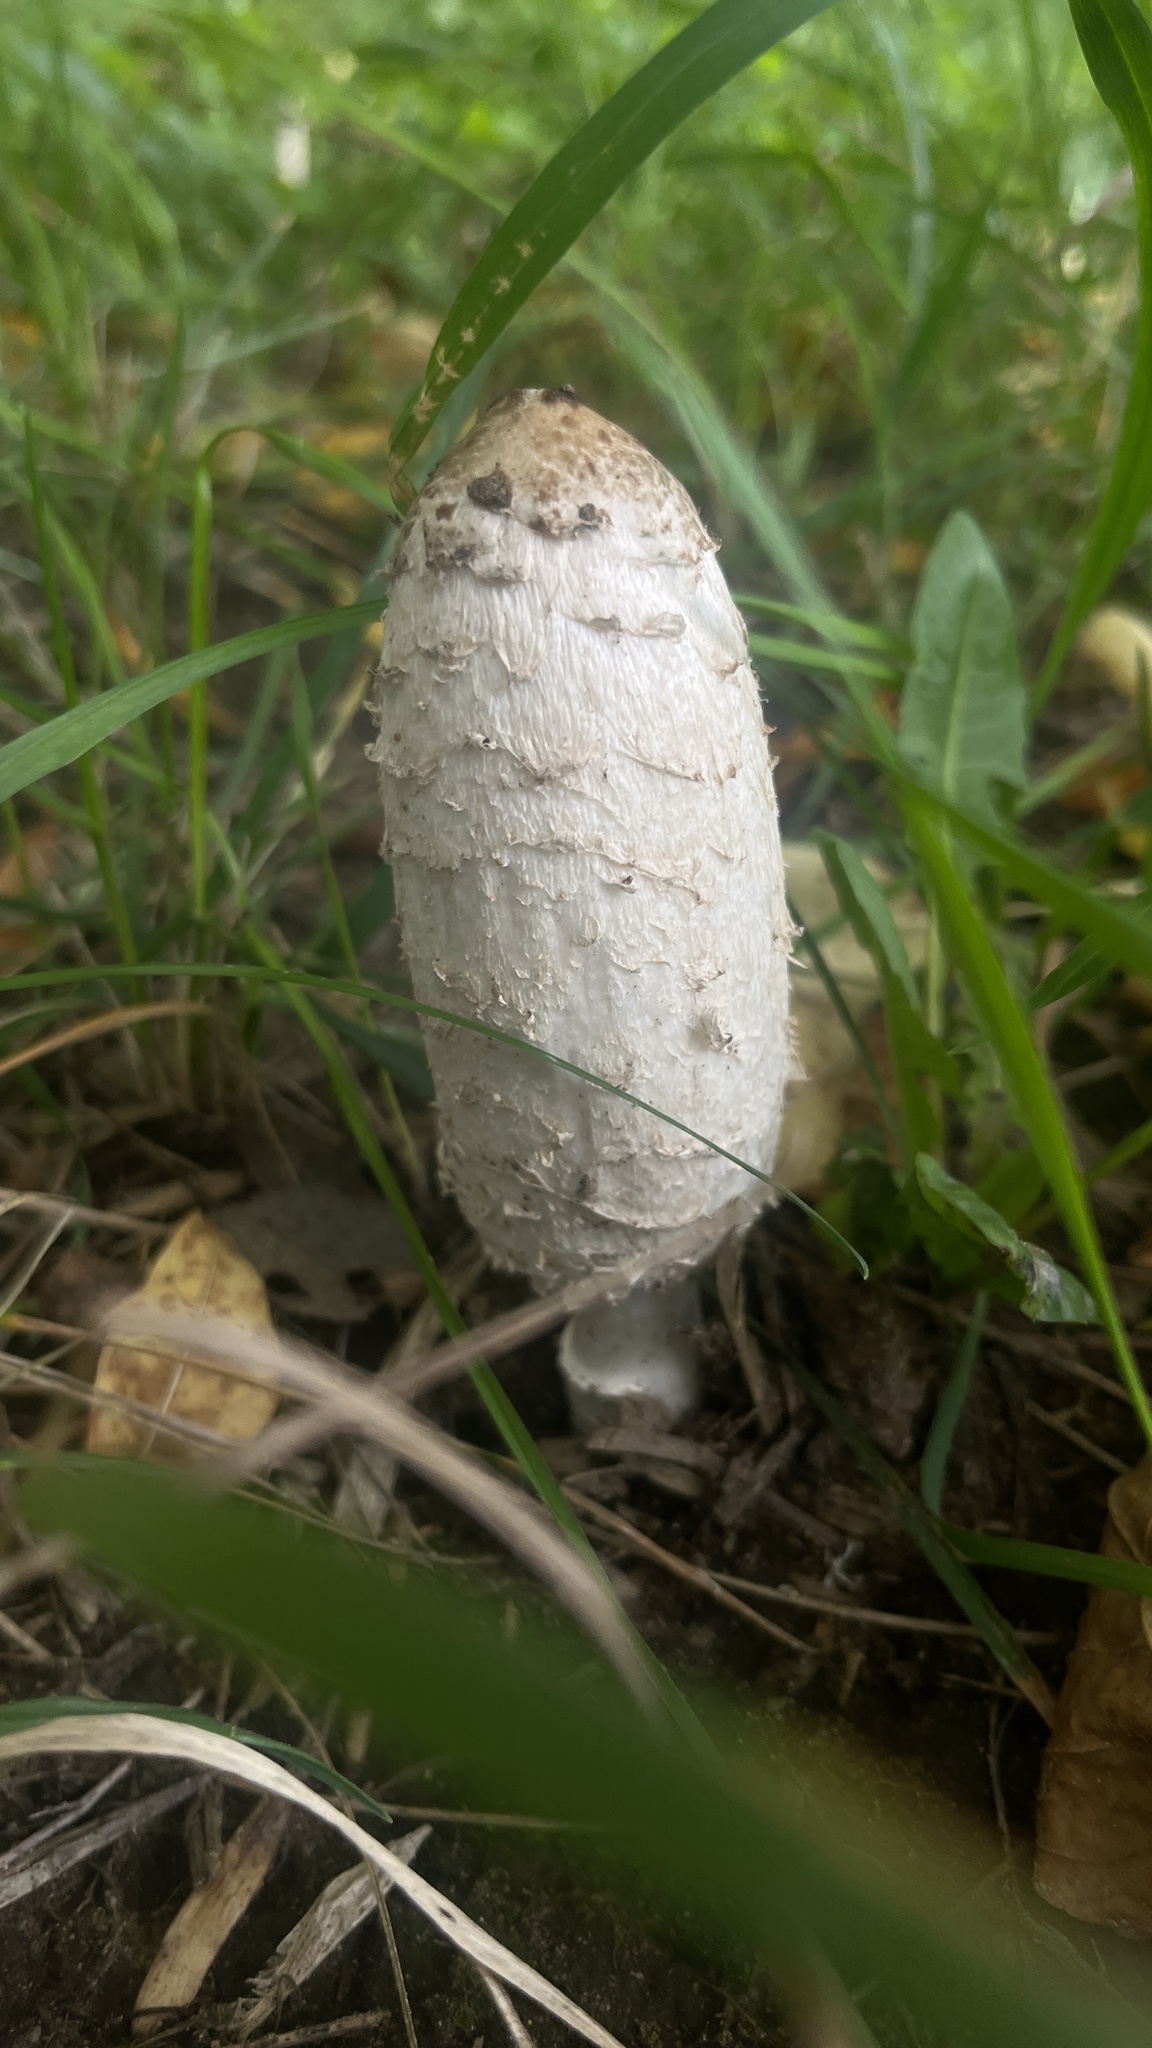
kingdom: Fungi
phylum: Basidiomycota
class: Agaricomycetes
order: Agaricales
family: Agaricaceae
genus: Coprinus
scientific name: Coprinus comatus
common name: Lawyer's wig
